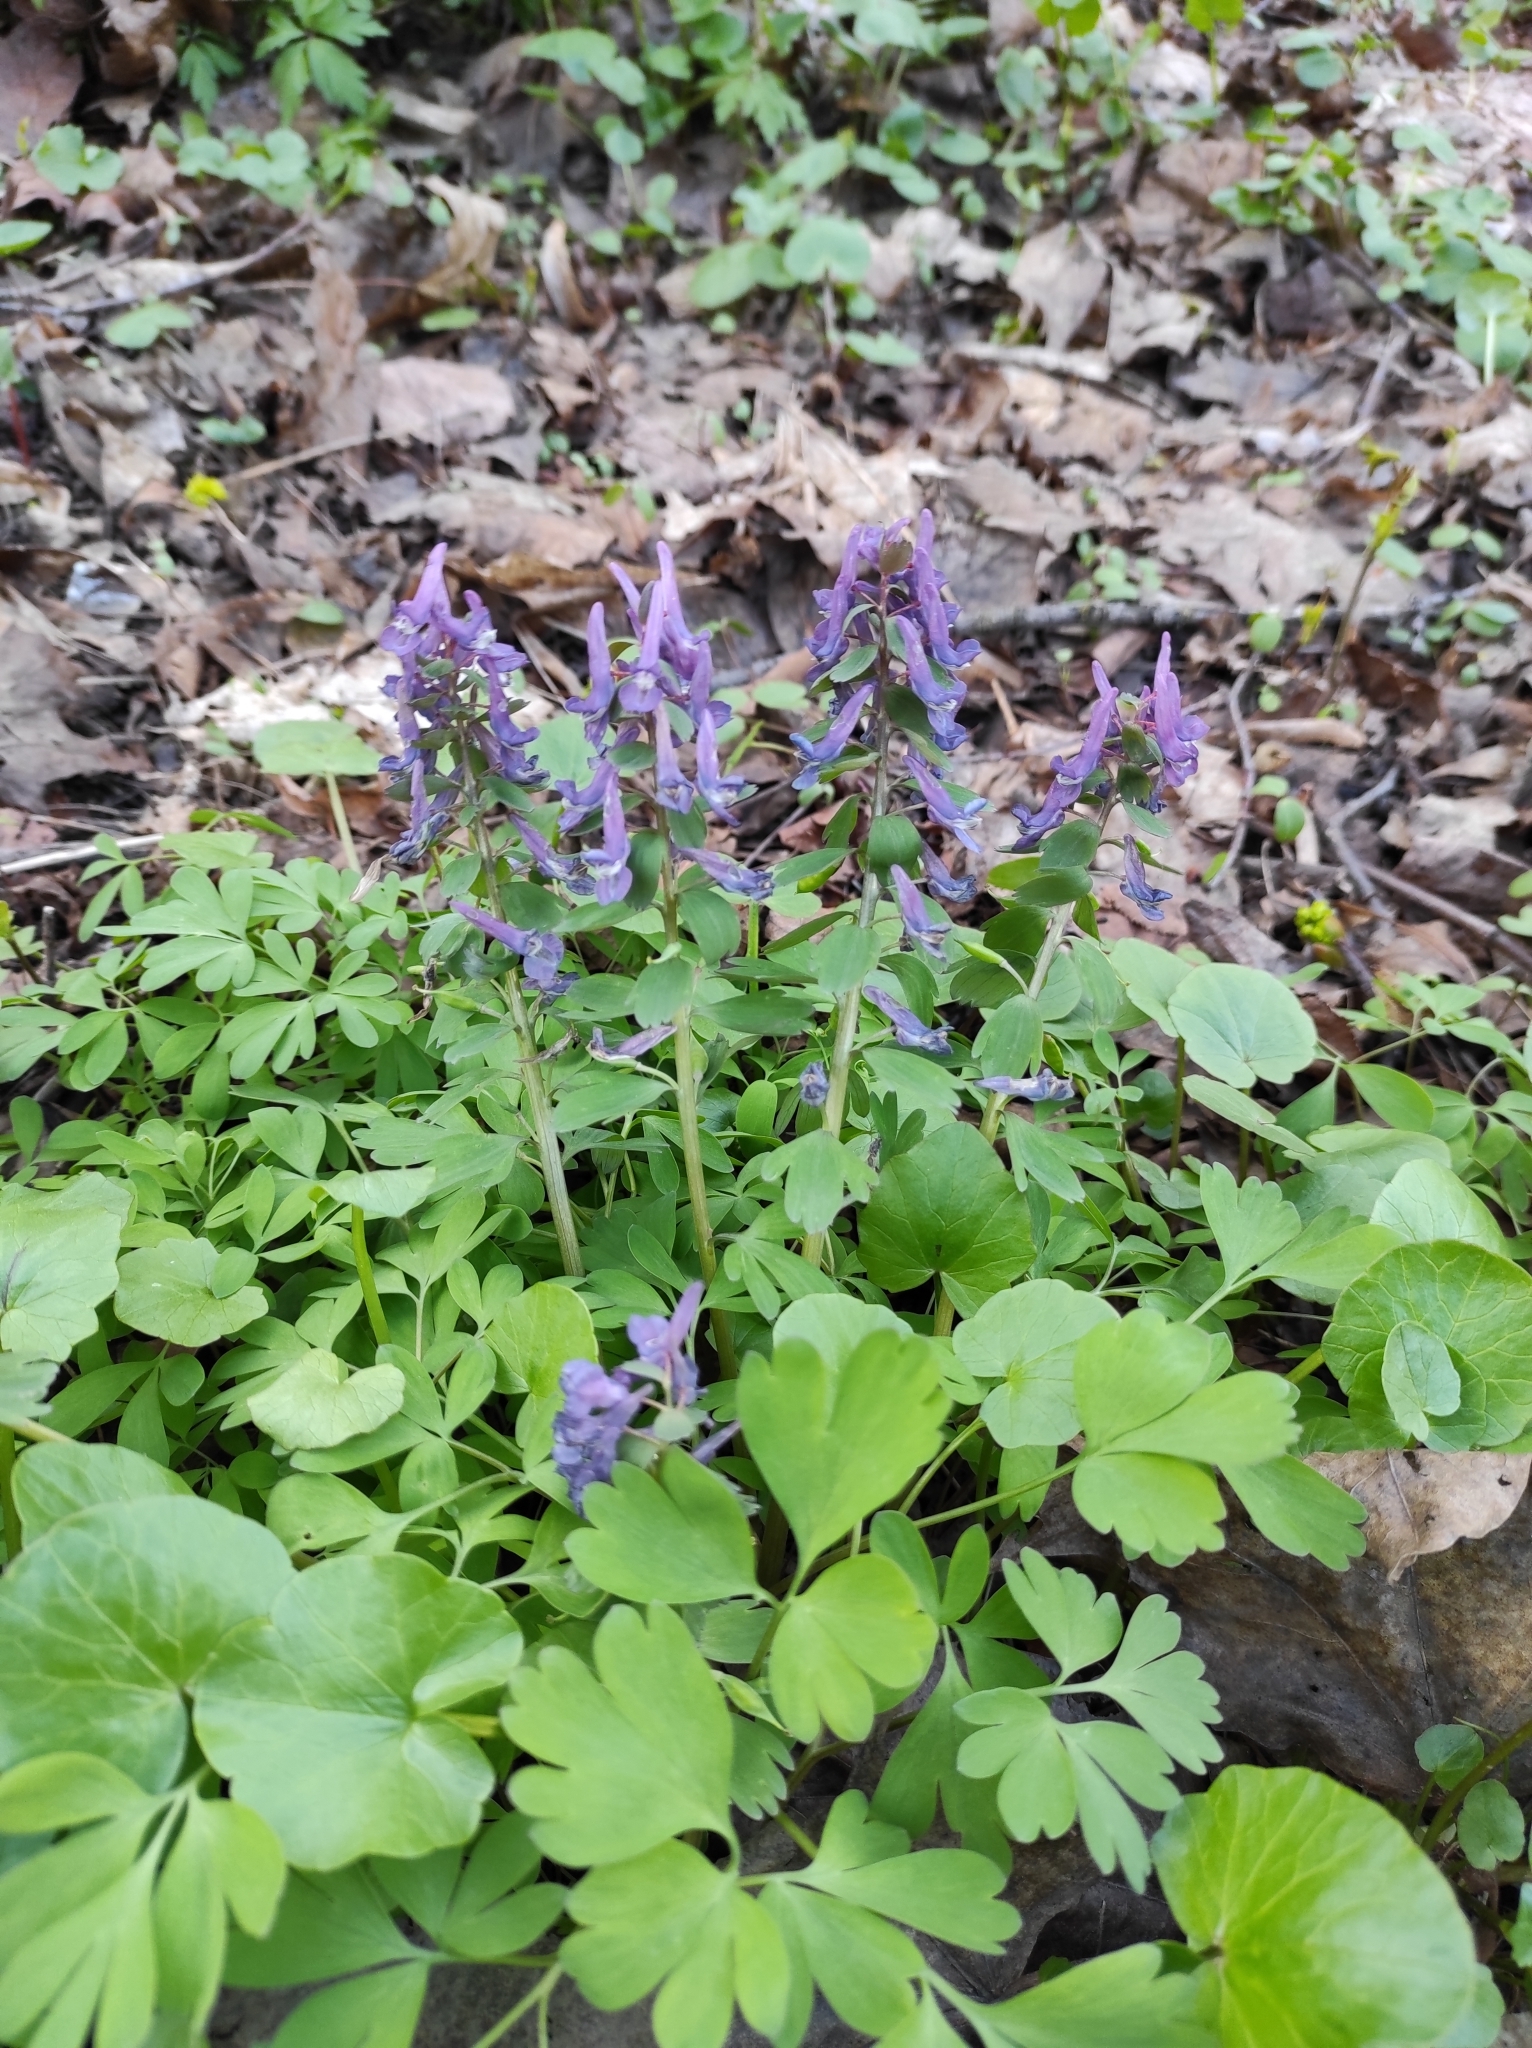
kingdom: Plantae
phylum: Tracheophyta
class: Magnoliopsida
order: Ranunculales
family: Papaveraceae
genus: Corydalis
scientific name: Corydalis solida
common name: Bird-in-a-bush
